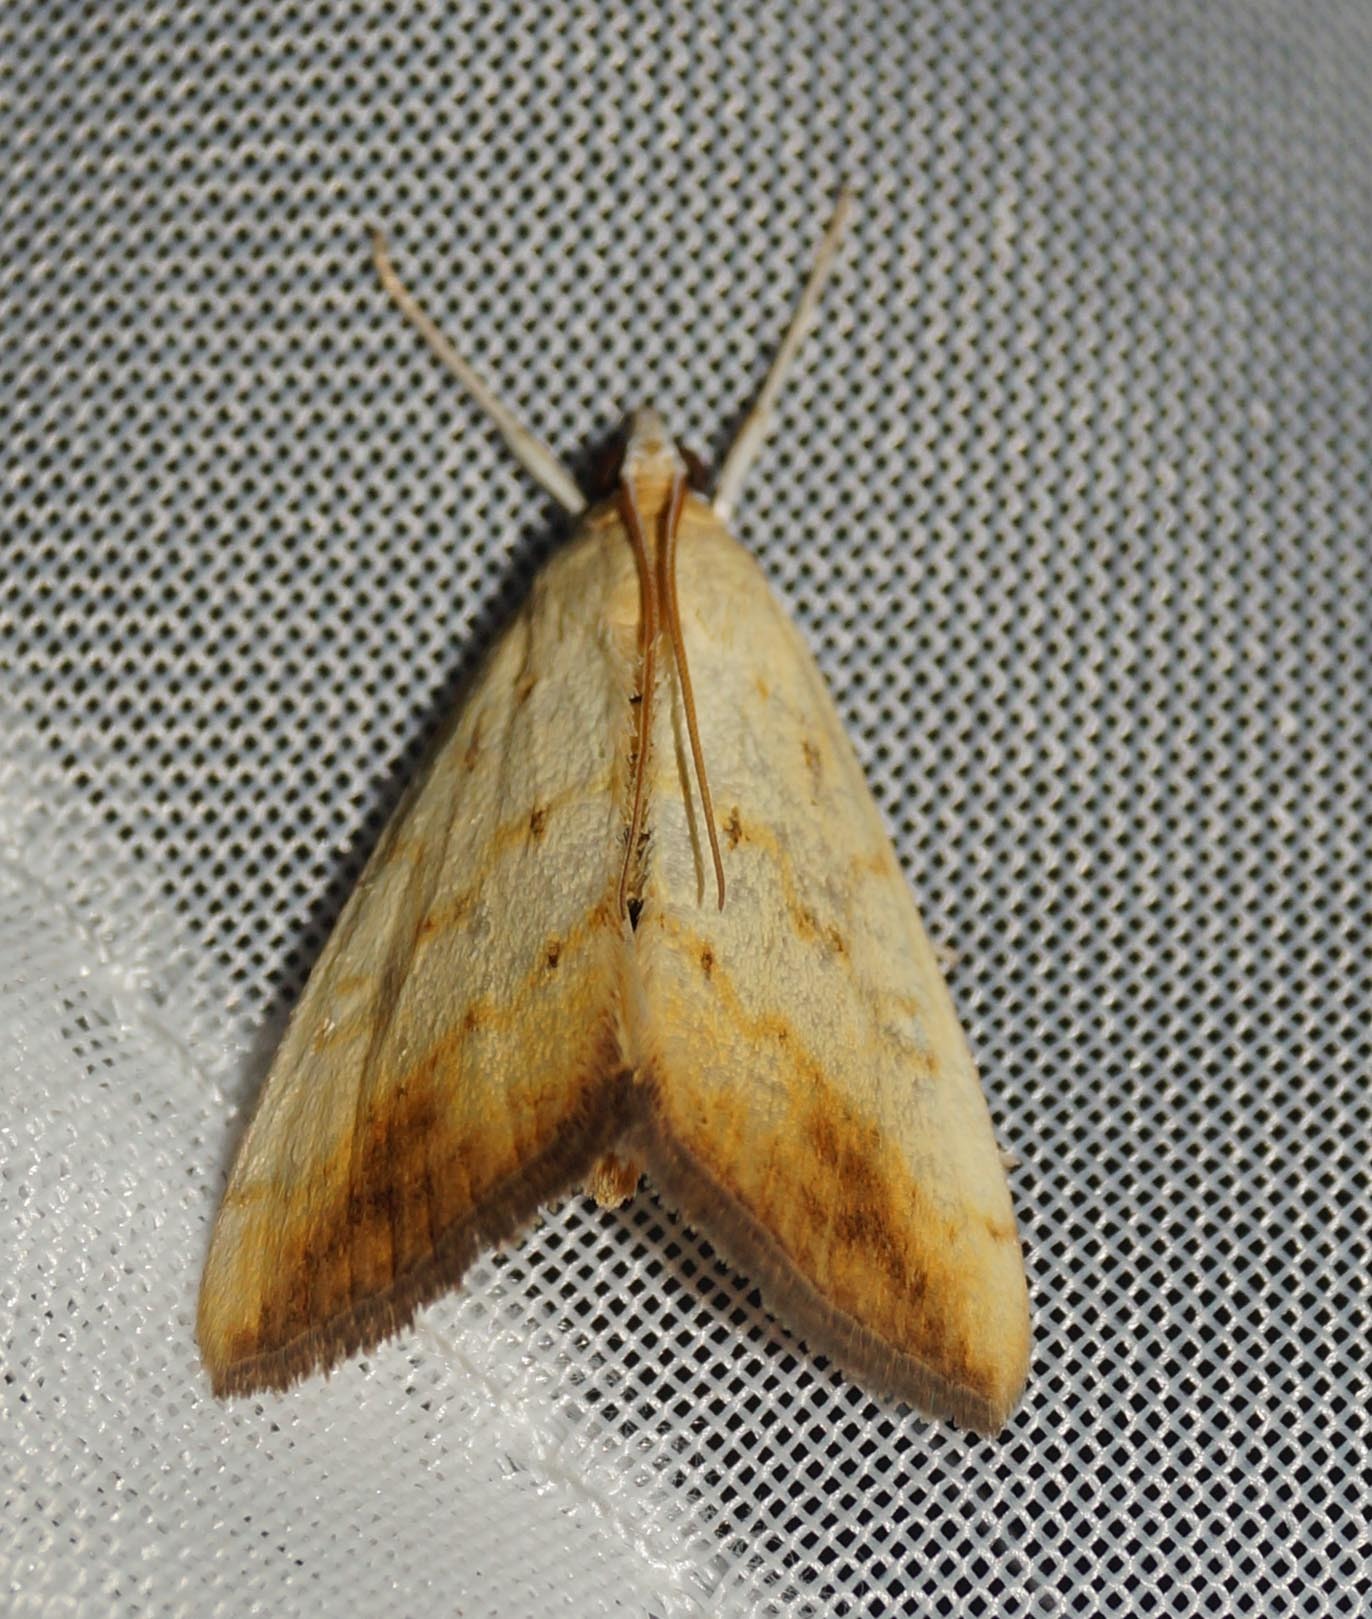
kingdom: Animalia
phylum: Arthropoda
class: Insecta
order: Lepidoptera
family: Crambidae
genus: Evergestis
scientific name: Evergestis extimalis
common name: Marbled yellow pearl
